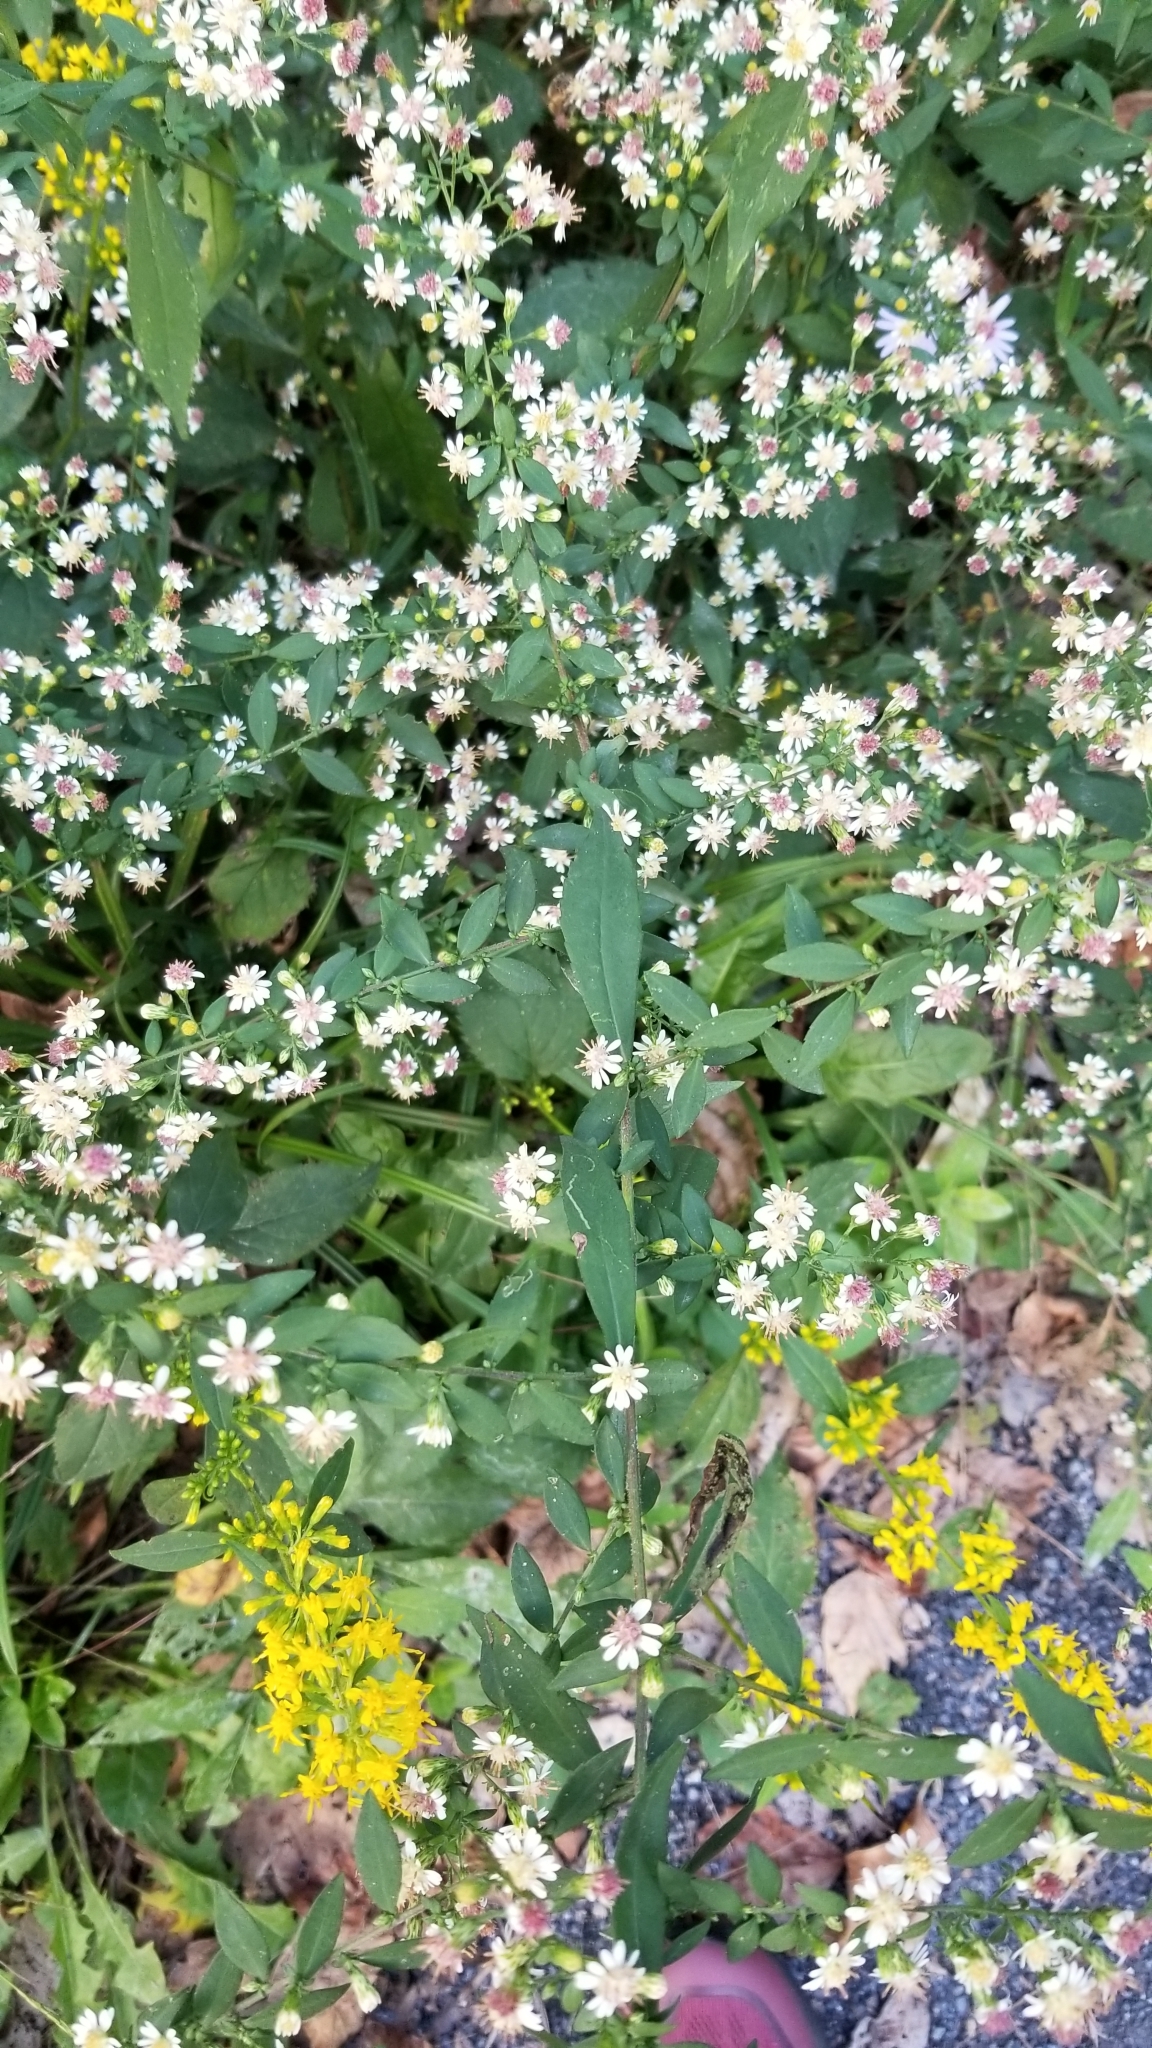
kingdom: Plantae
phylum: Tracheophyta
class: Magnoliopsida
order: Asterales
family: Asteraceae
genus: Symphyotrichum
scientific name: Symphyotrichum lateriflorum
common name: Calico aster
